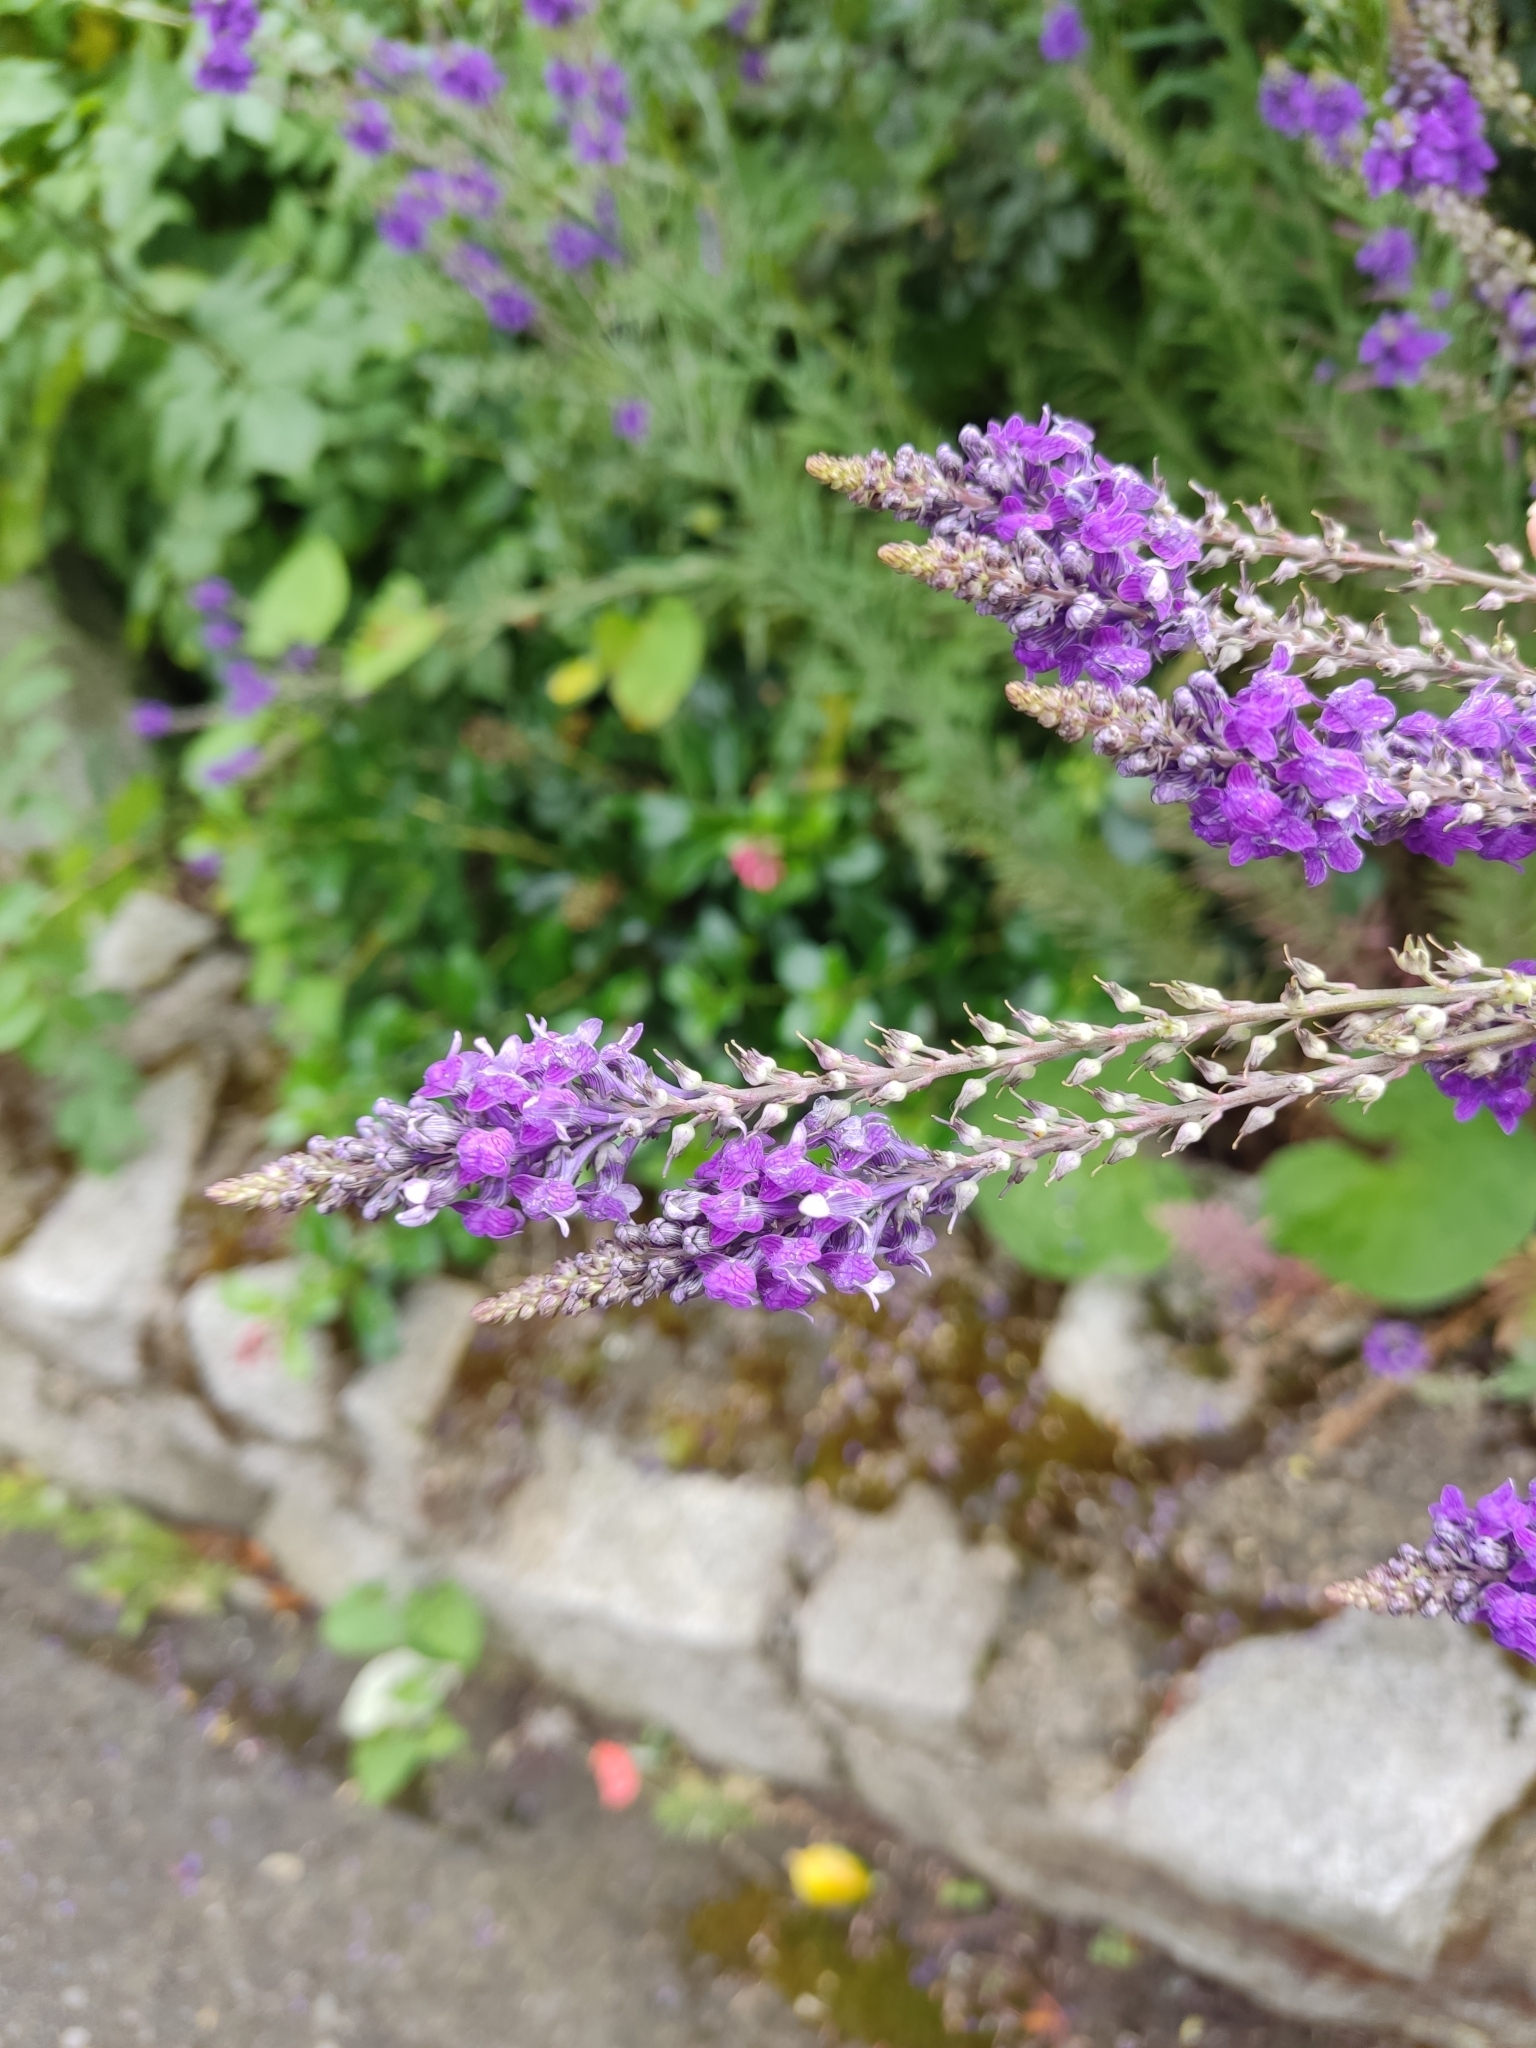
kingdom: Plantae
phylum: Tracheophyta
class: Magnoliopsida
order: Lamiales
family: Plantaginaceae
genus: Linaria
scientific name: Linaria purpurea
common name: Purple toadflax
